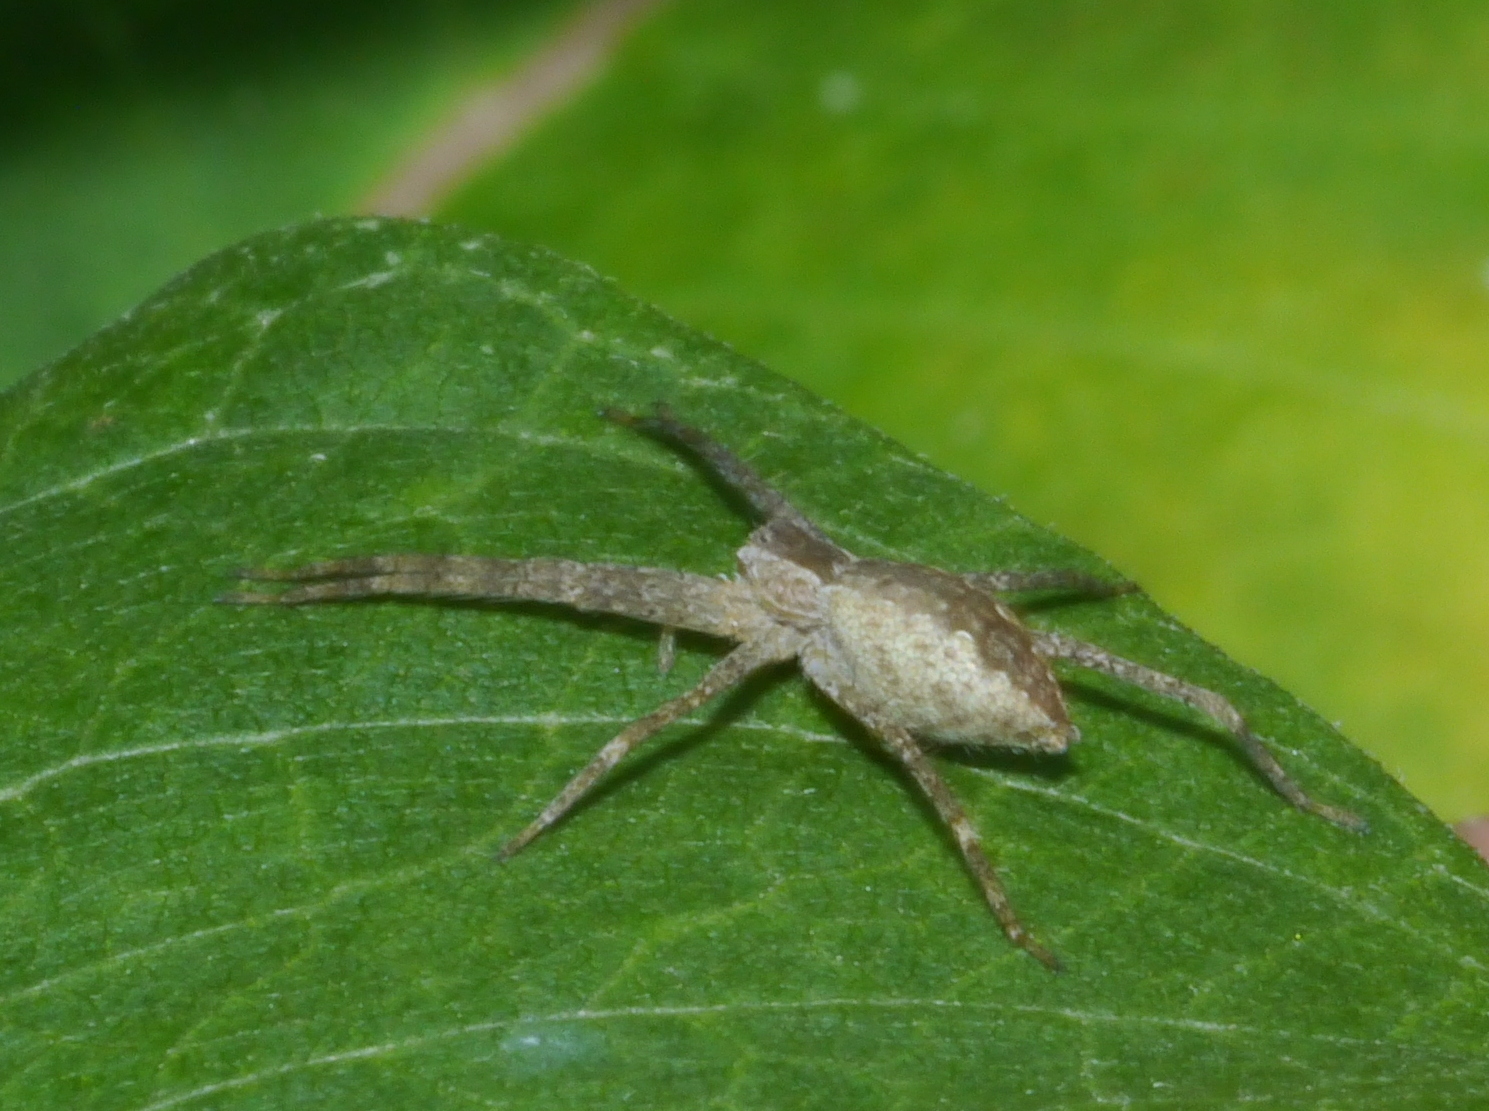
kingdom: Animalia
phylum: Arthropoda
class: Arachnida
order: Araneae
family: Pisauridae
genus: Pisaurina
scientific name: Pisaurina mira
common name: American nursery web spider
